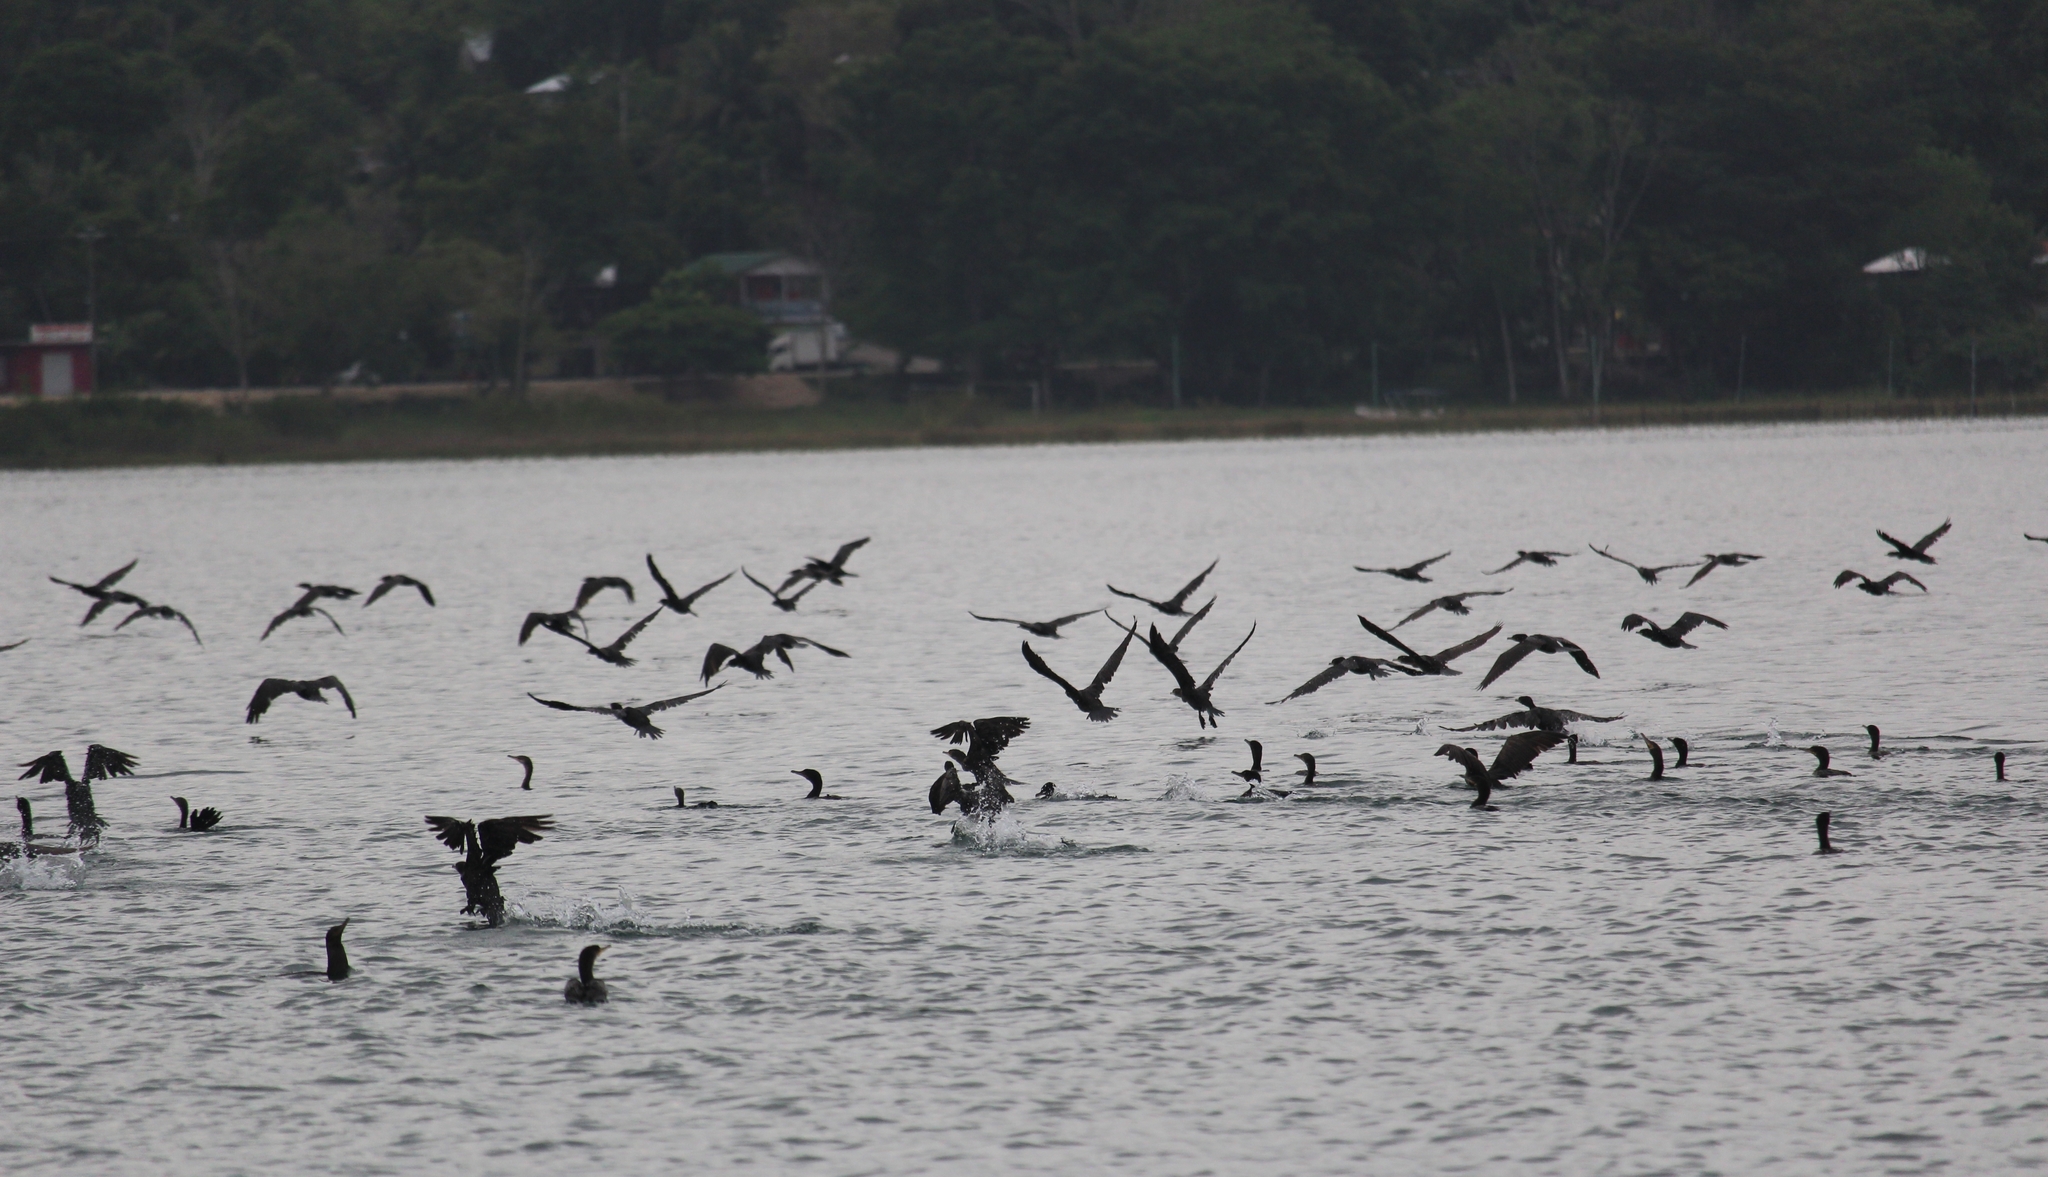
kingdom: Animalia
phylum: Chordata
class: Aves
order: Suliformes
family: Phalacrocoracidae
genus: Phalacrocorax
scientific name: Phalacrocorax brasilianus
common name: Neotropic cormorant
